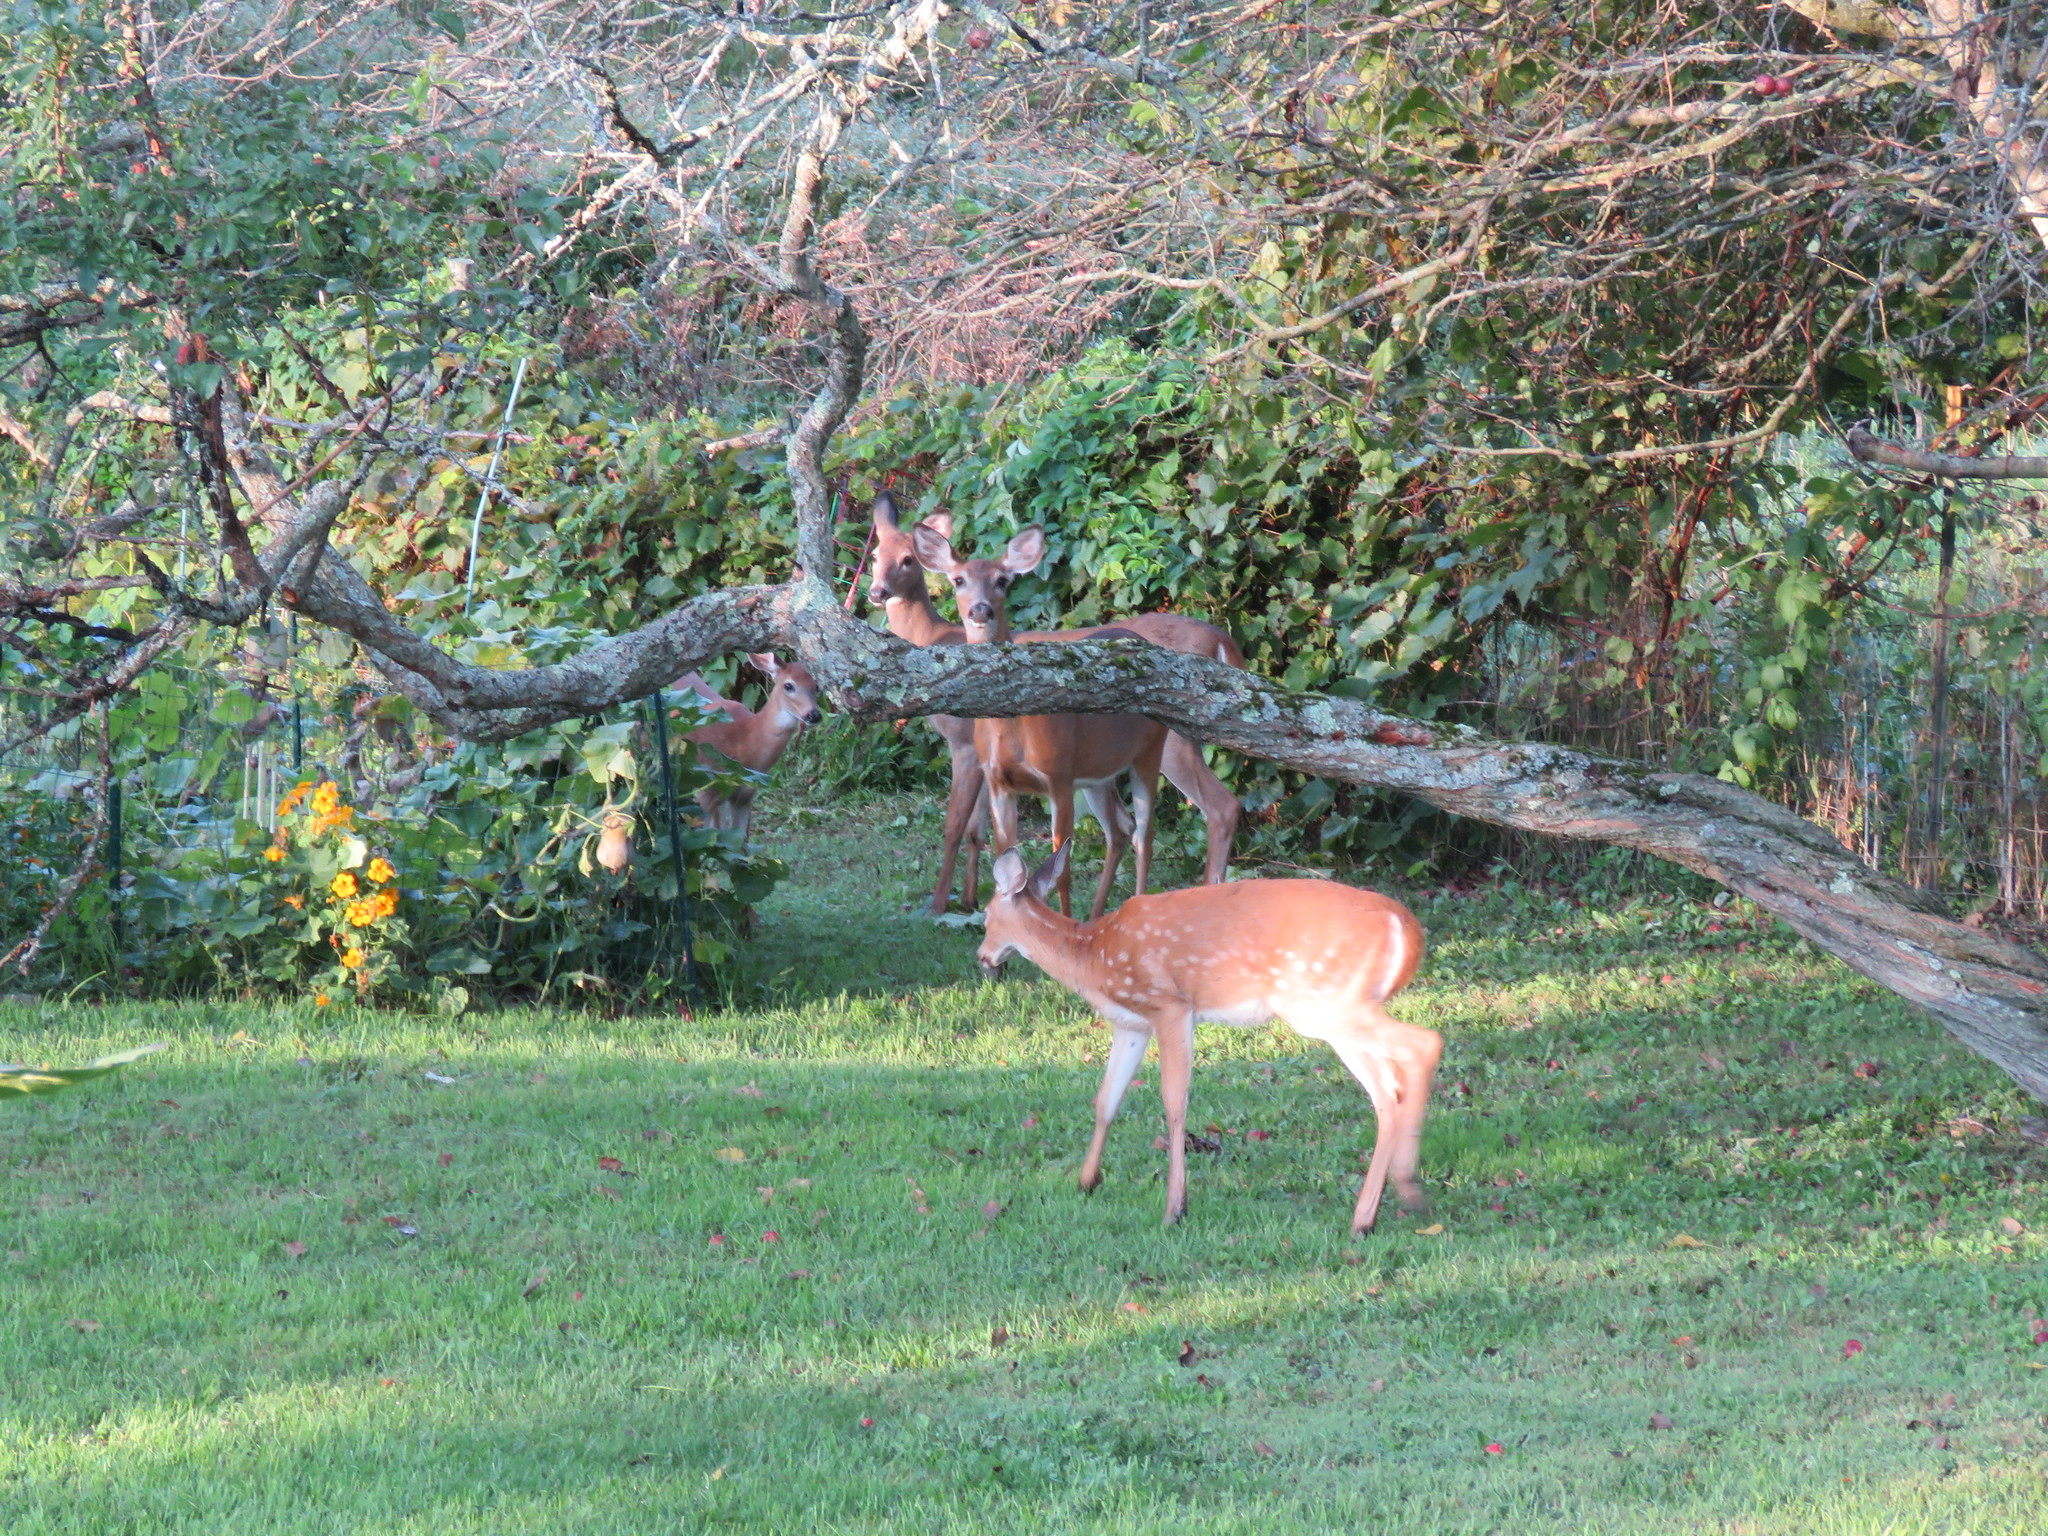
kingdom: Animalia
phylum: Chordata
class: Mammalia
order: Artiodactyla
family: Cervidae
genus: Odocoileus
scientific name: Odocoileus virginianus
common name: White-tailed deer
